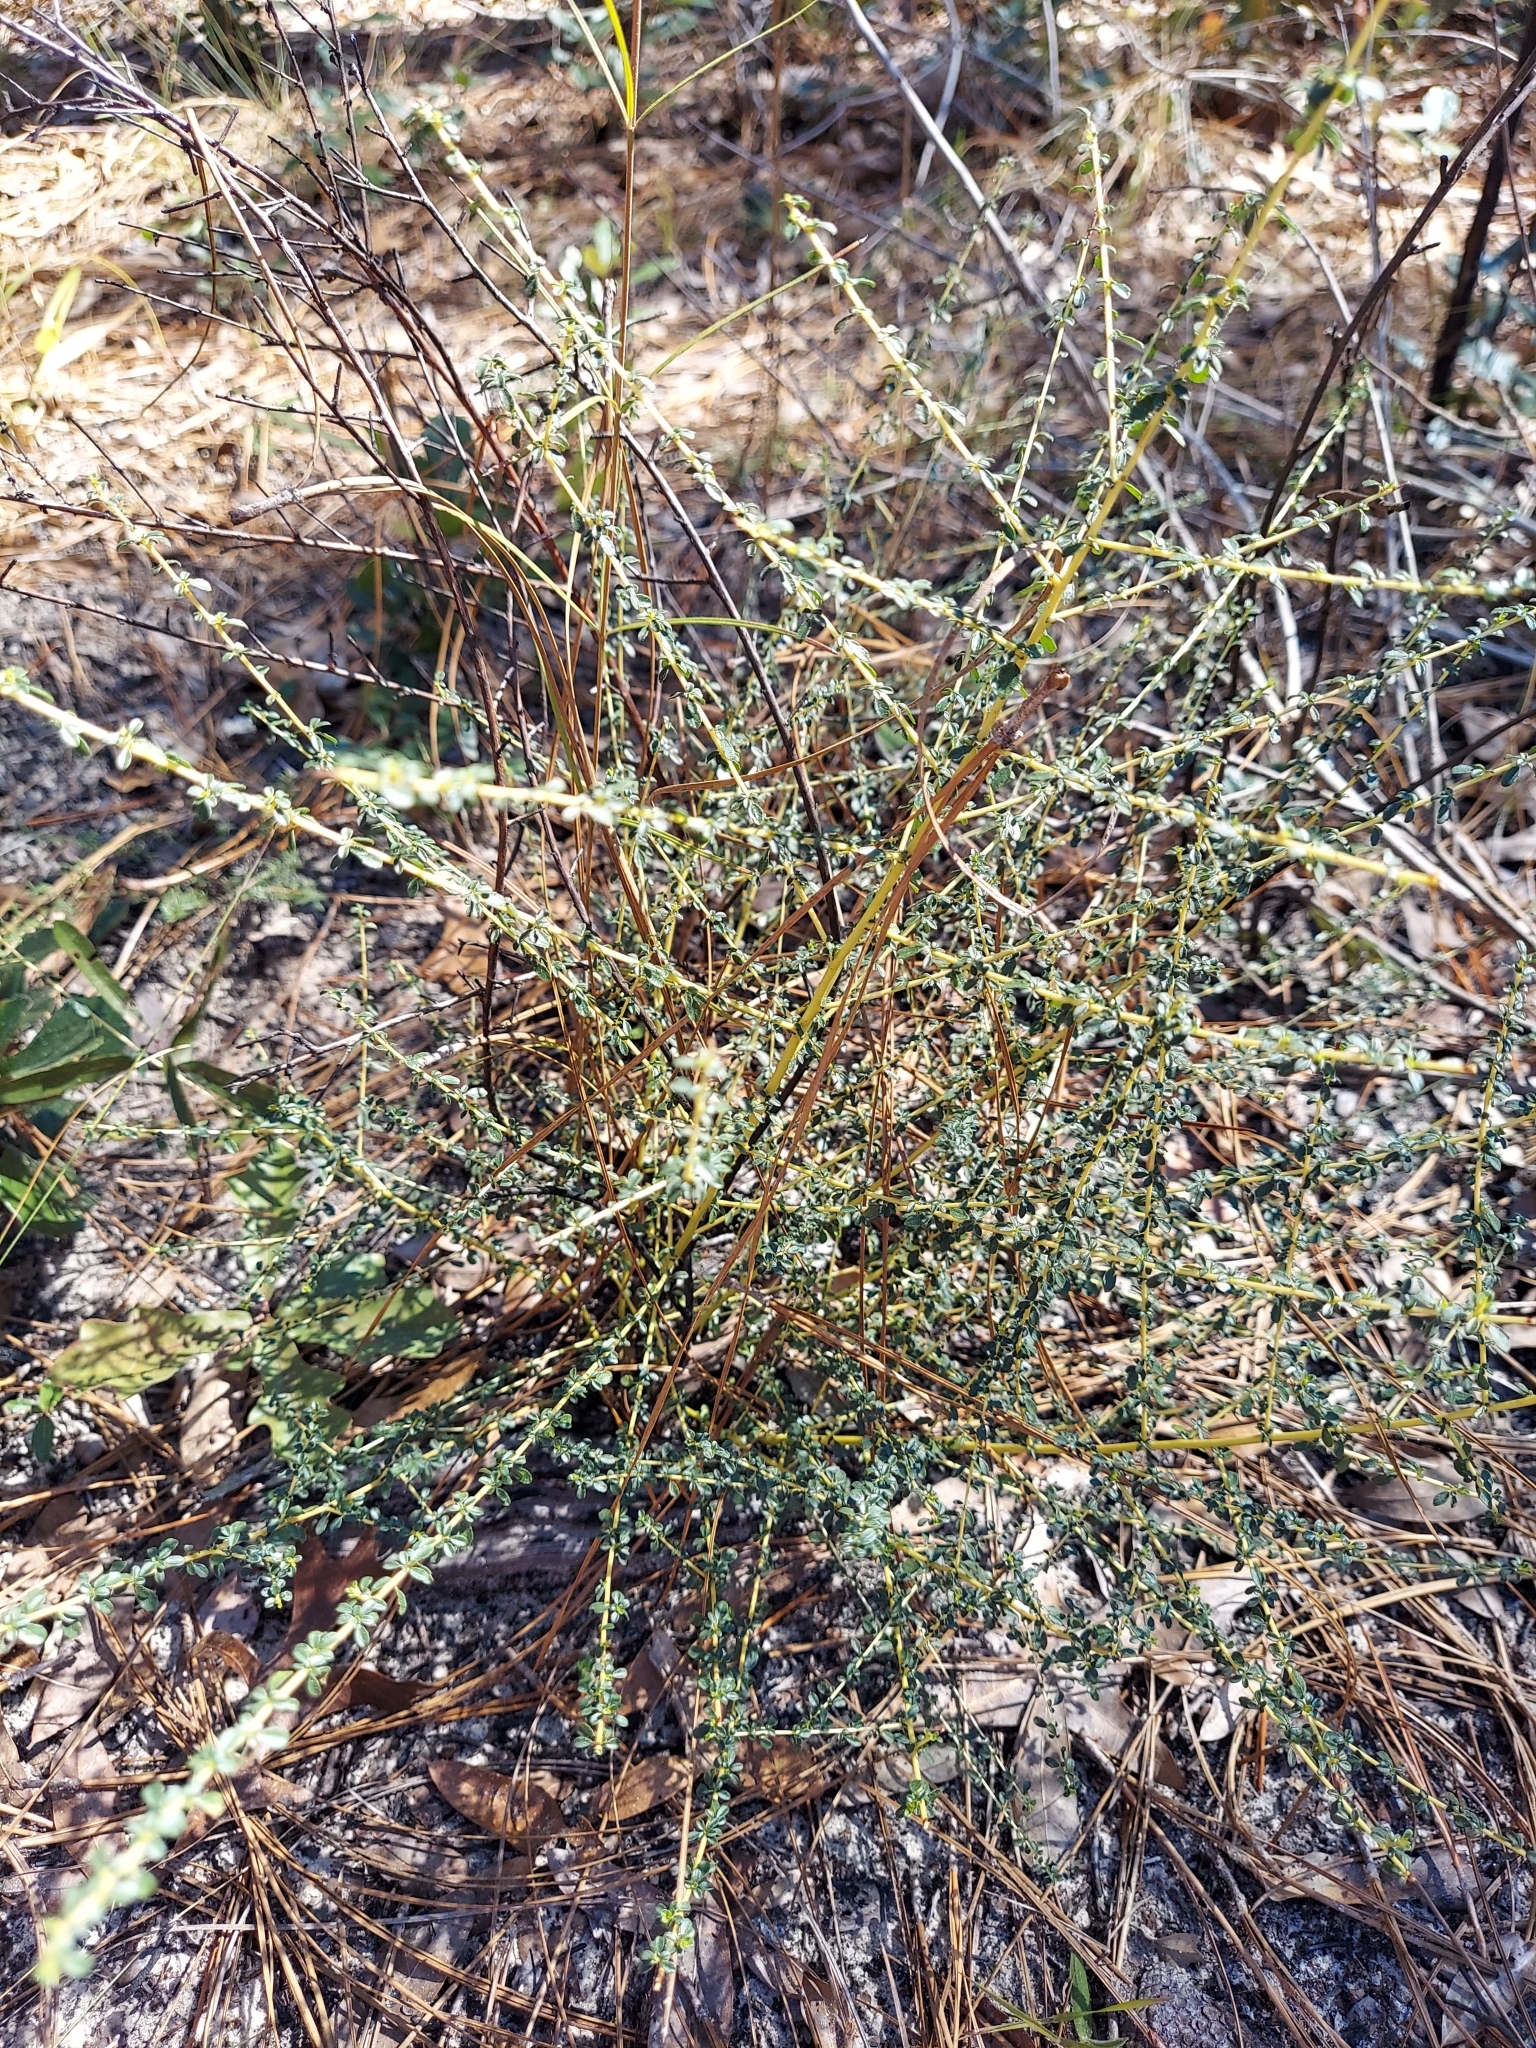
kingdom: Plantae
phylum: Tracheophyta
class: Magnoliopsida
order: Rosales
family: Rhamnaceae
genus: Ceanothus
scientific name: Ceanothus microphyllus
